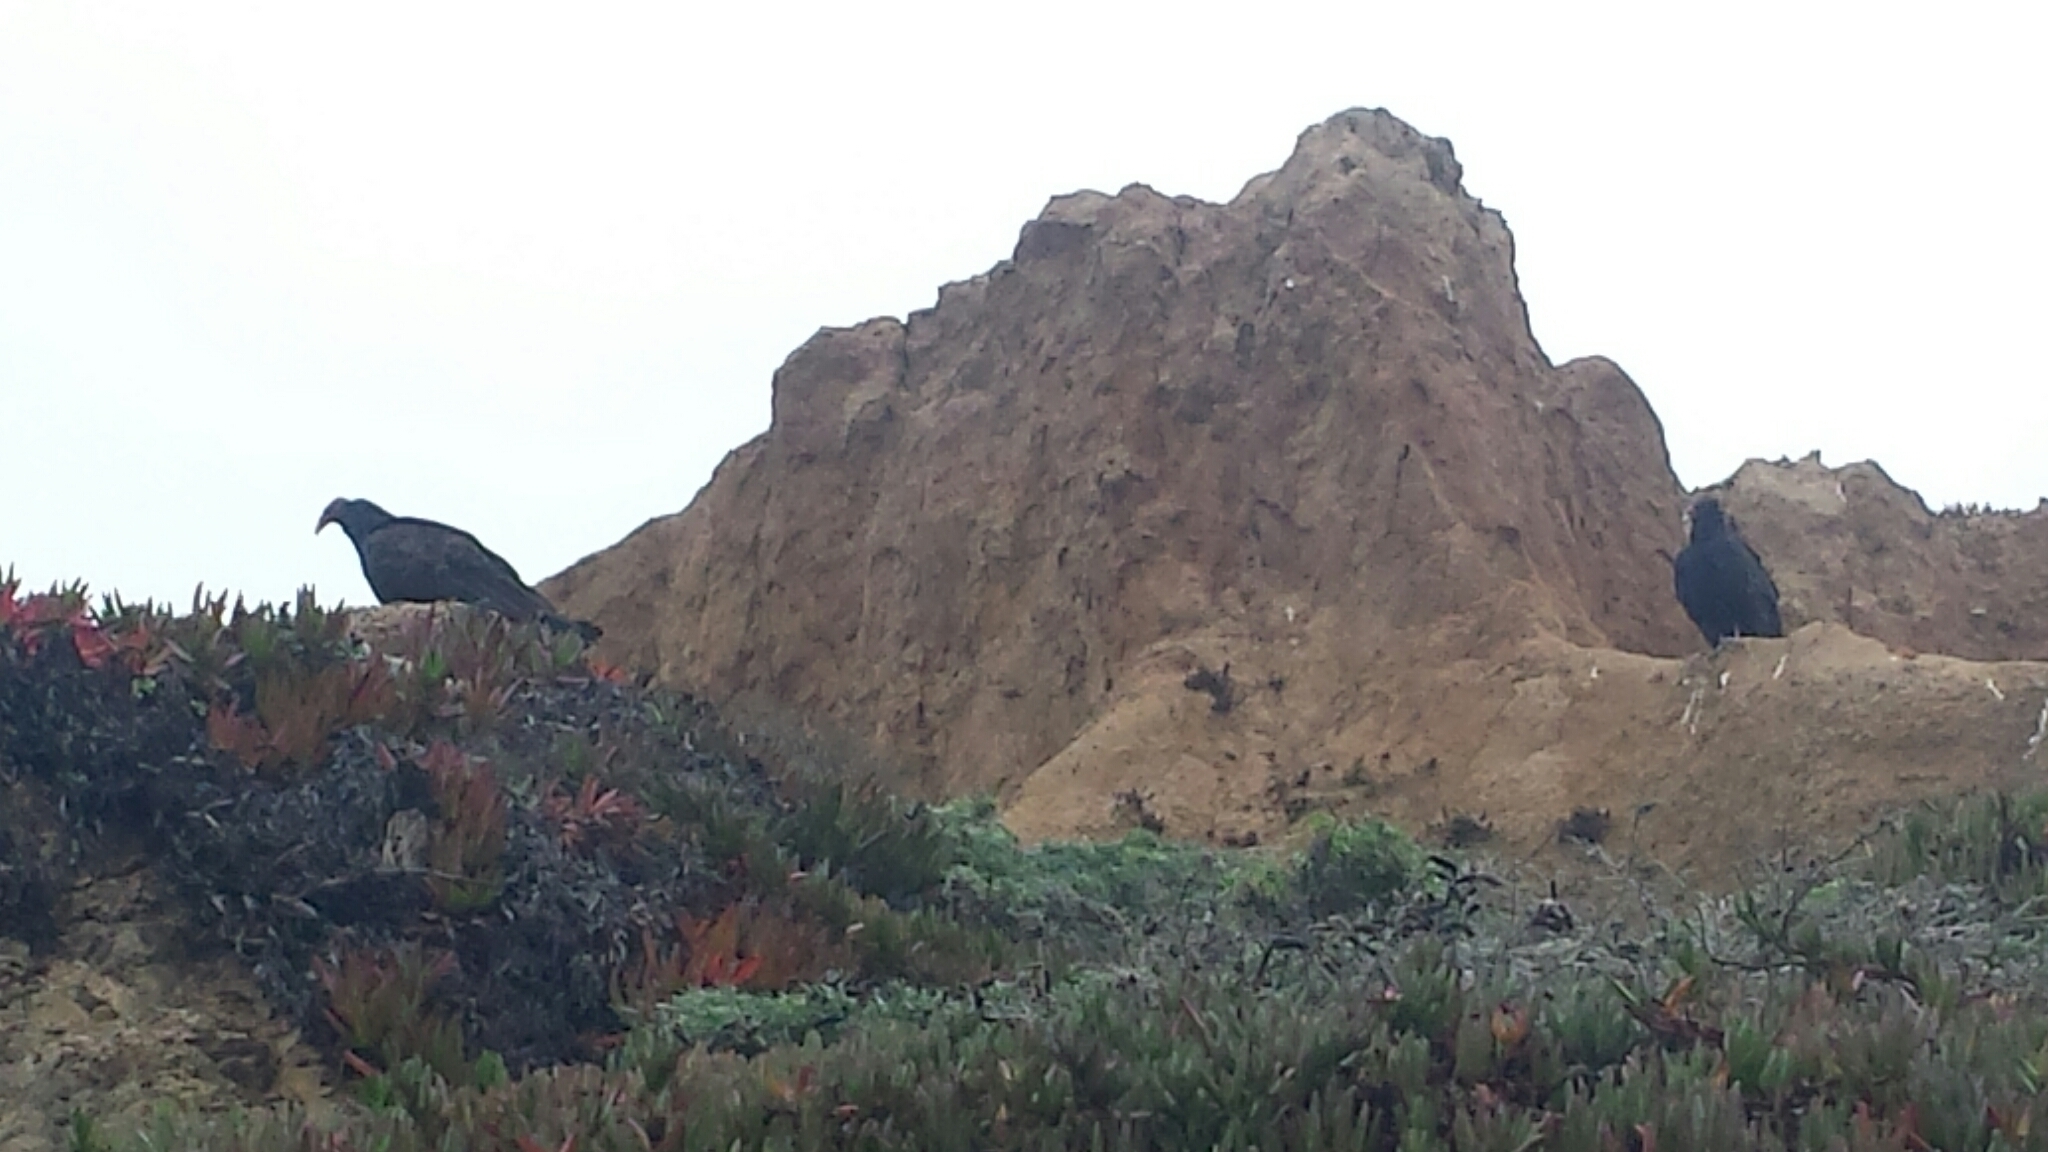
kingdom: Animalia
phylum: Chordata
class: Aves
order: Accipitriformes
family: Cathartidae
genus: Cathartes
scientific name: Cathartes aura
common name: Turkey vulture
